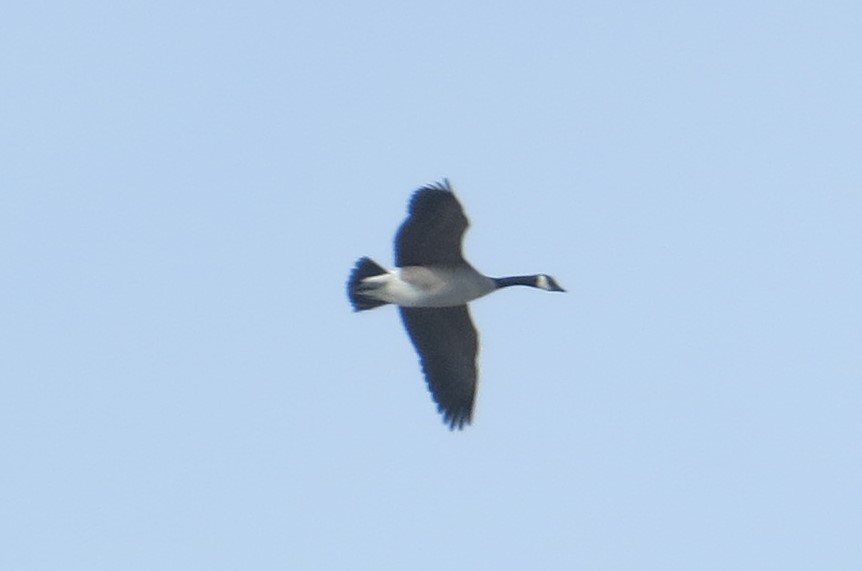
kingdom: Animalia
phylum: Chordata
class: Aves
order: Anseriformes
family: Anatidae
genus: Branta
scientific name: Branta canadensis
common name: Canada goose
